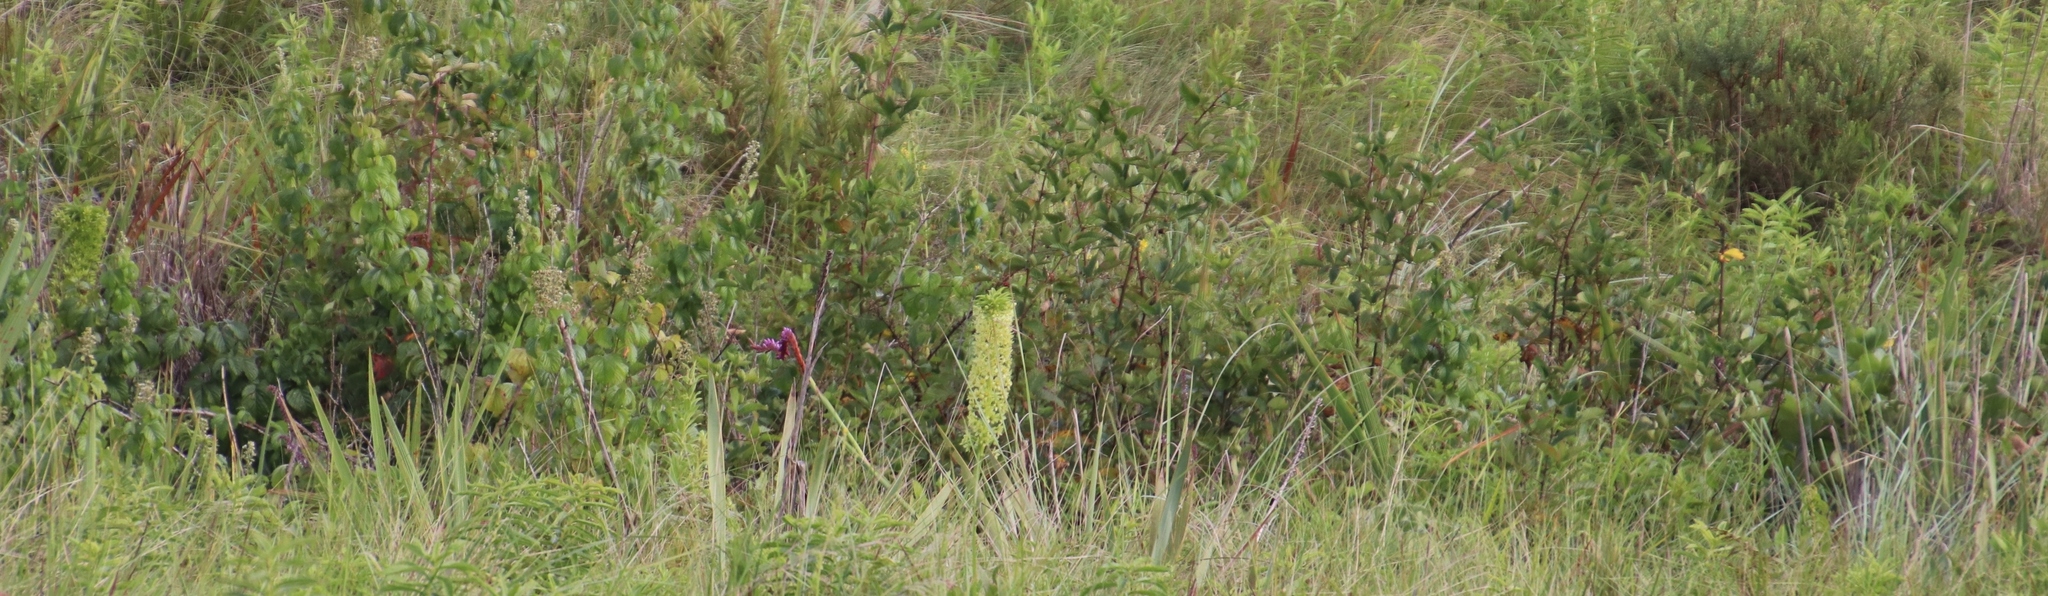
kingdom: Plantae
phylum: Tracheophyta
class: Liliopsida
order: Asparagales
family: Asparagaceae
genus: Eucomis
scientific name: Eucomis autumnalis
